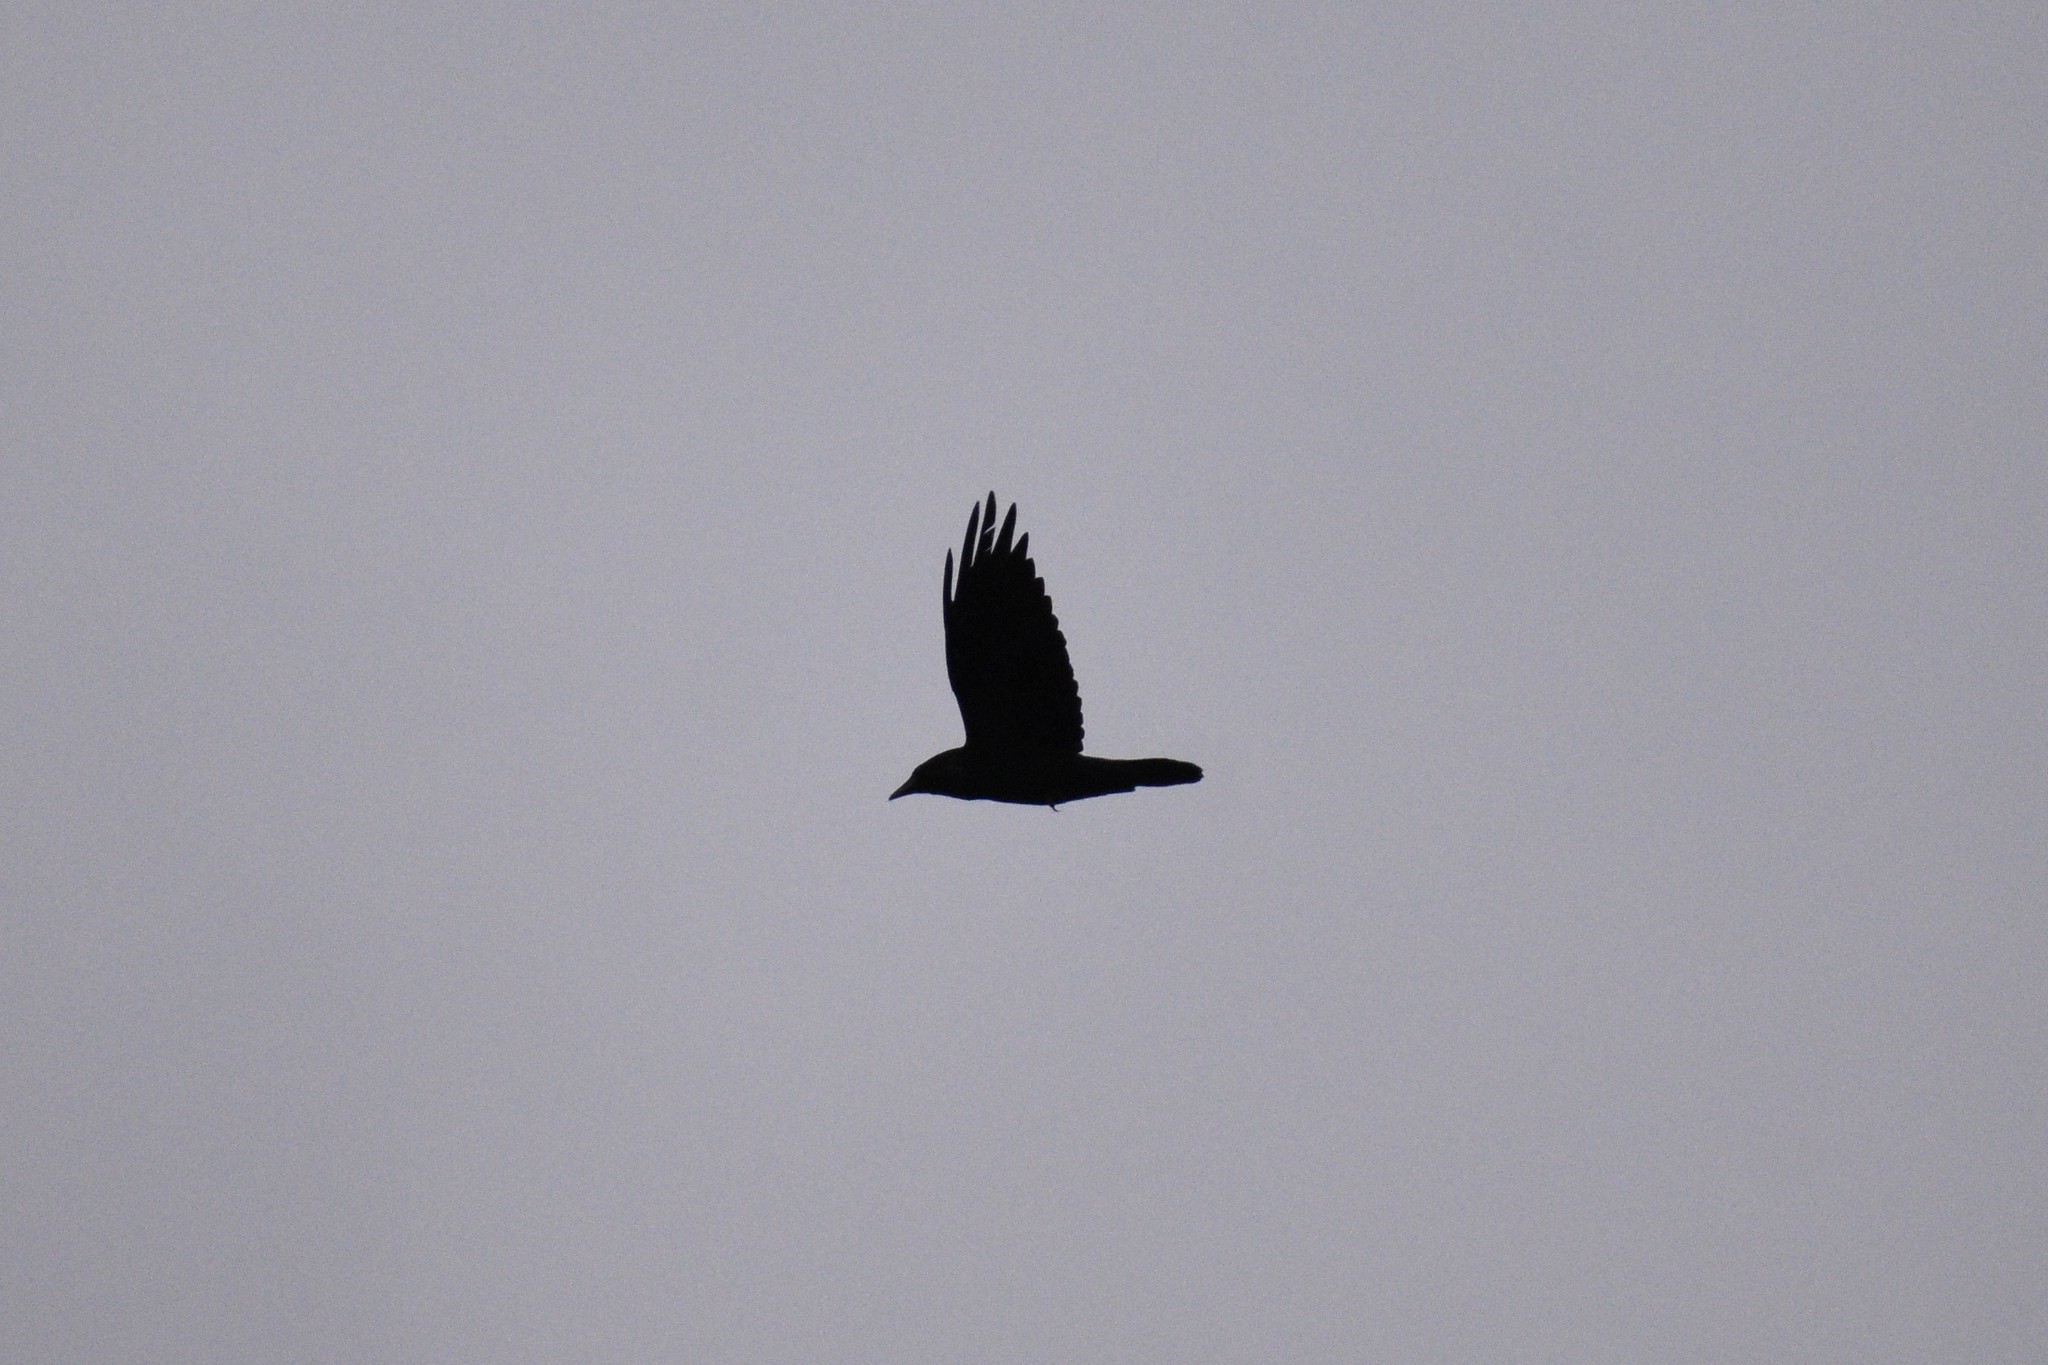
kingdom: Animalia
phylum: Chordata
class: Aves
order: Passeriformes
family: Corvidae
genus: Corvus
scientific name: Corvus corax
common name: Common raven
